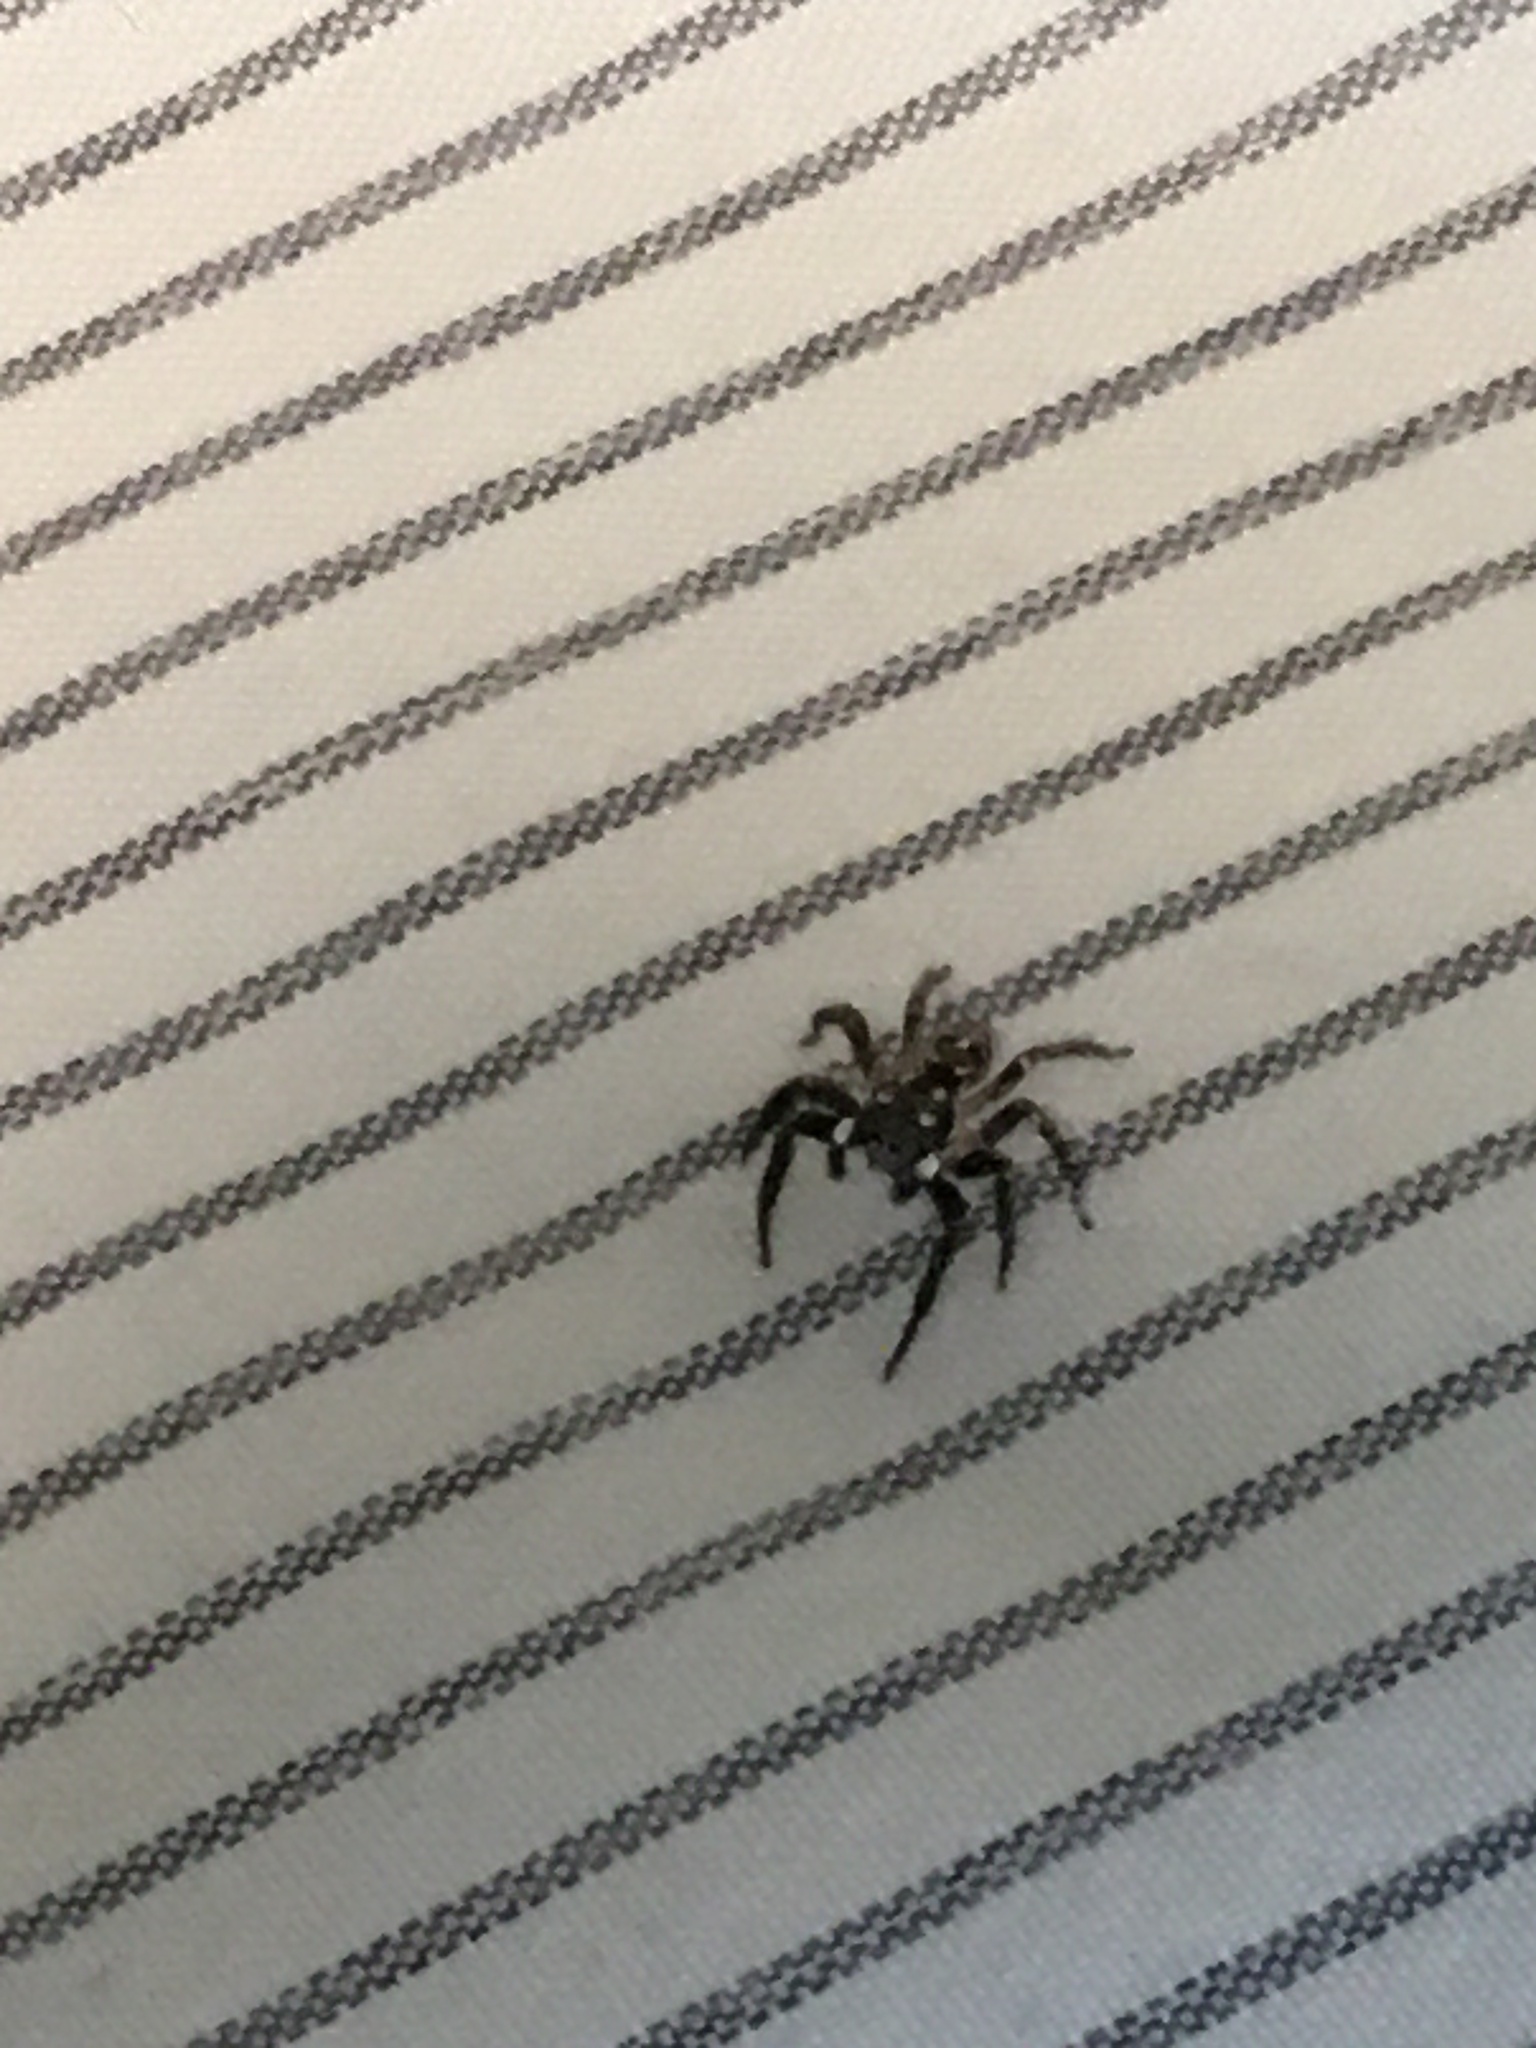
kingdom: Animalia
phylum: Arthropoda
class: Arachnida
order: Araneae
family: Salticidae
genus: Anasaitis
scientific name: Anasaitis canosa
